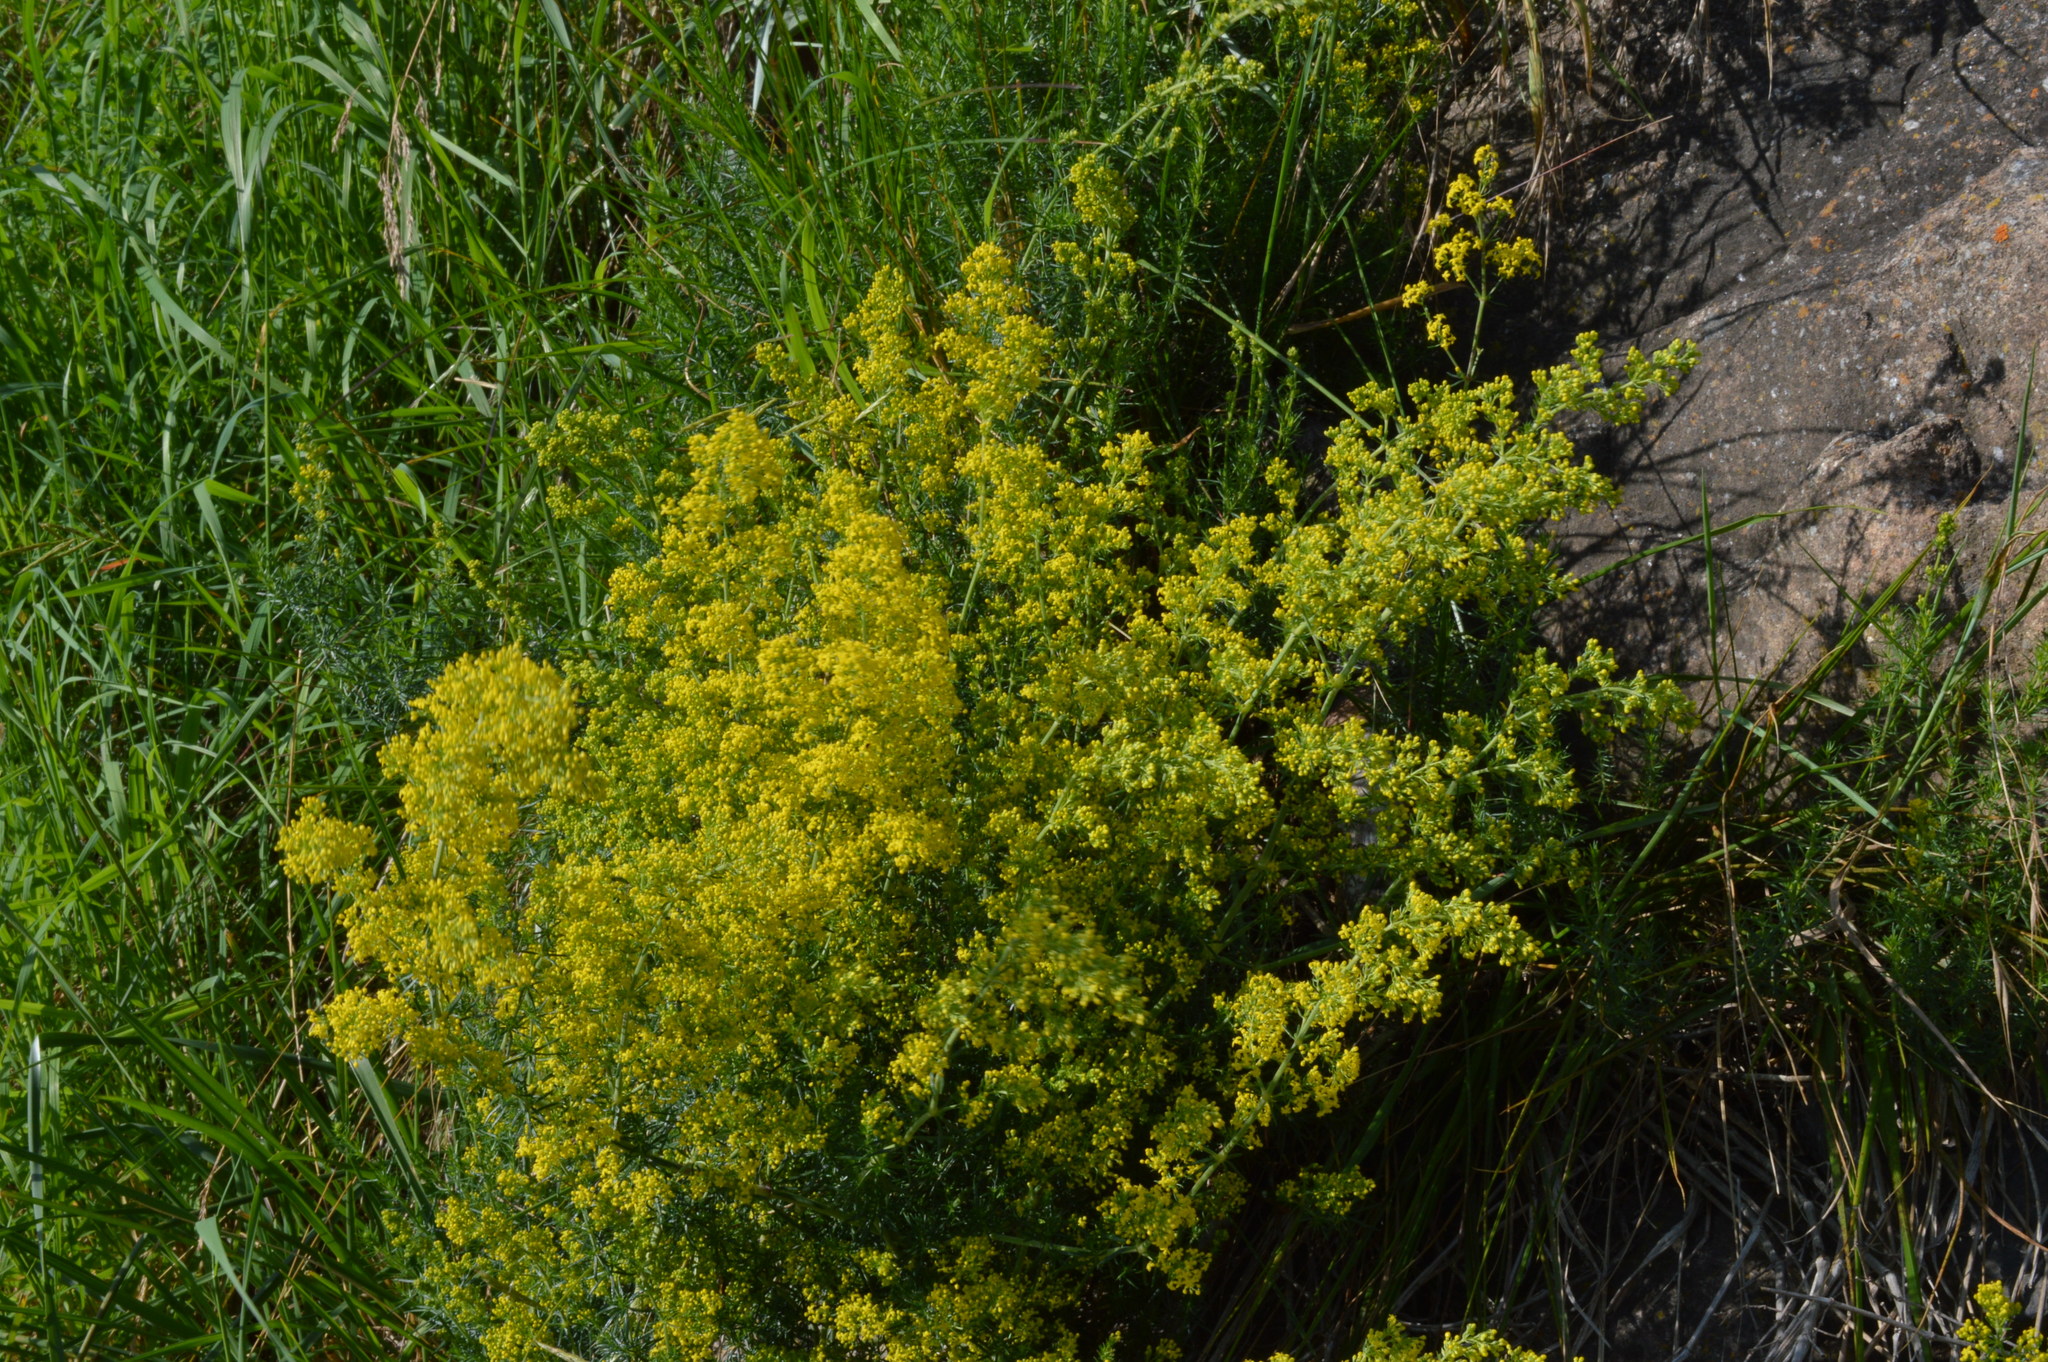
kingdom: Plantae
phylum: Tracheophyta
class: Magnoliopsida
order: Gentianales
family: Rubiaceae
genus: Galium
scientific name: Galium verum
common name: Lady's bedstraw
